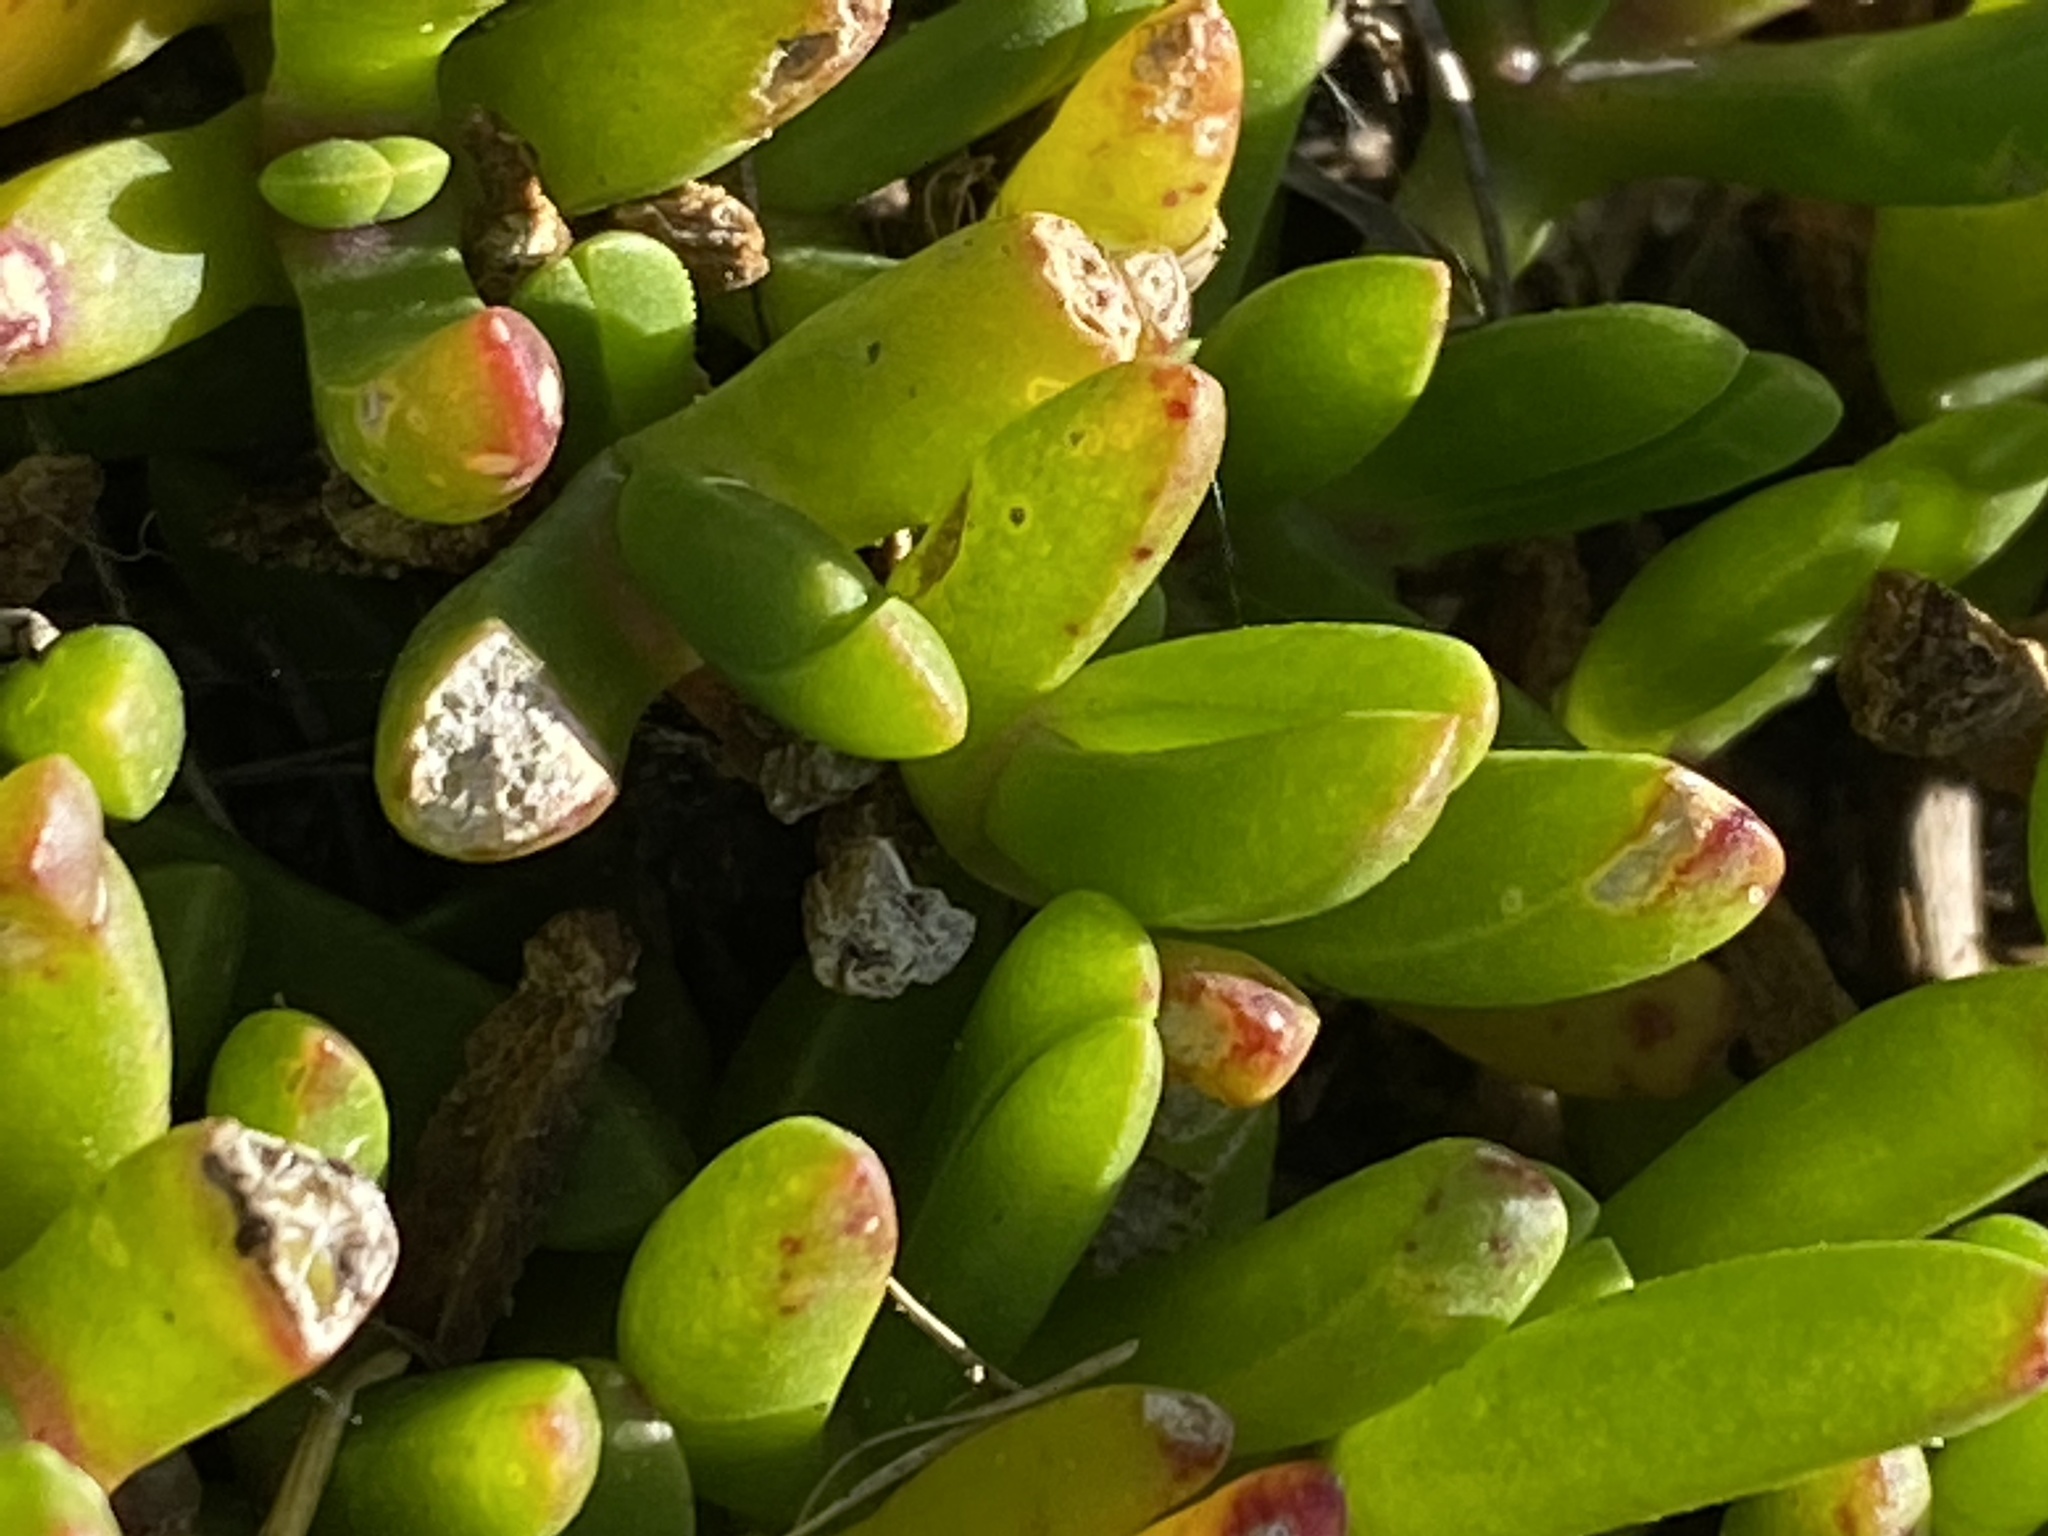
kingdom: Plantae
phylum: Tracheophyta
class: Magnoliopsida
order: Caryophyllales
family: Aizoaceae
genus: Disphyma
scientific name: Disphyma crassifolium
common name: Purple dewplant
